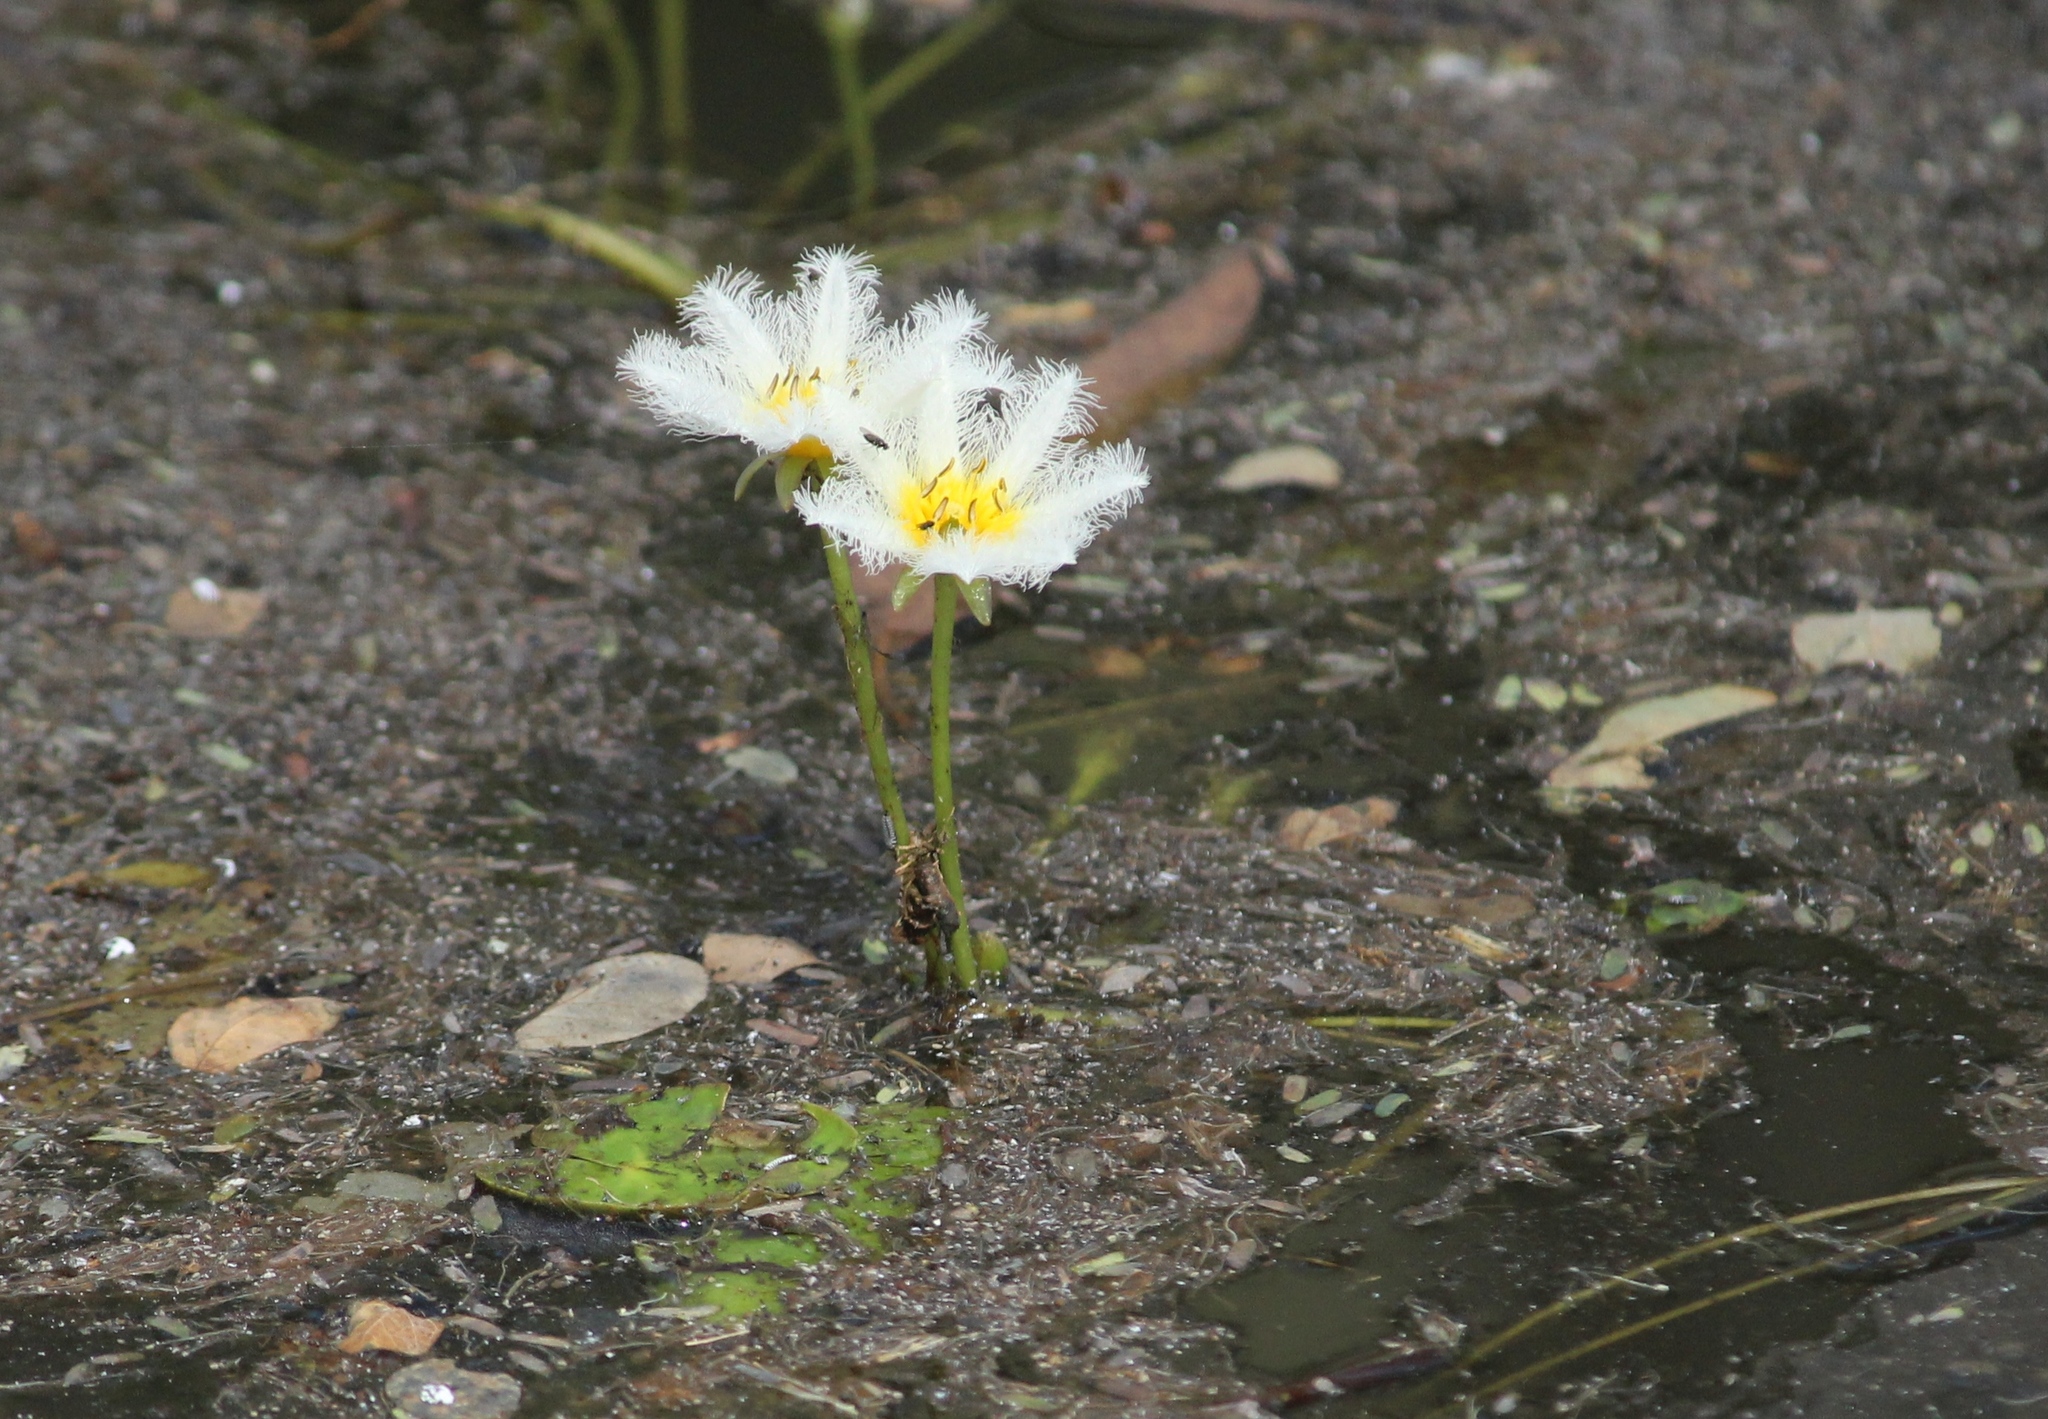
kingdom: Plantae
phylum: Tracheophyta
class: Magnoliopsida
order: Asterales
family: Menyanthaceae
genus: Nymphoides
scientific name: Nymphoides indica
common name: Water-snowflake
